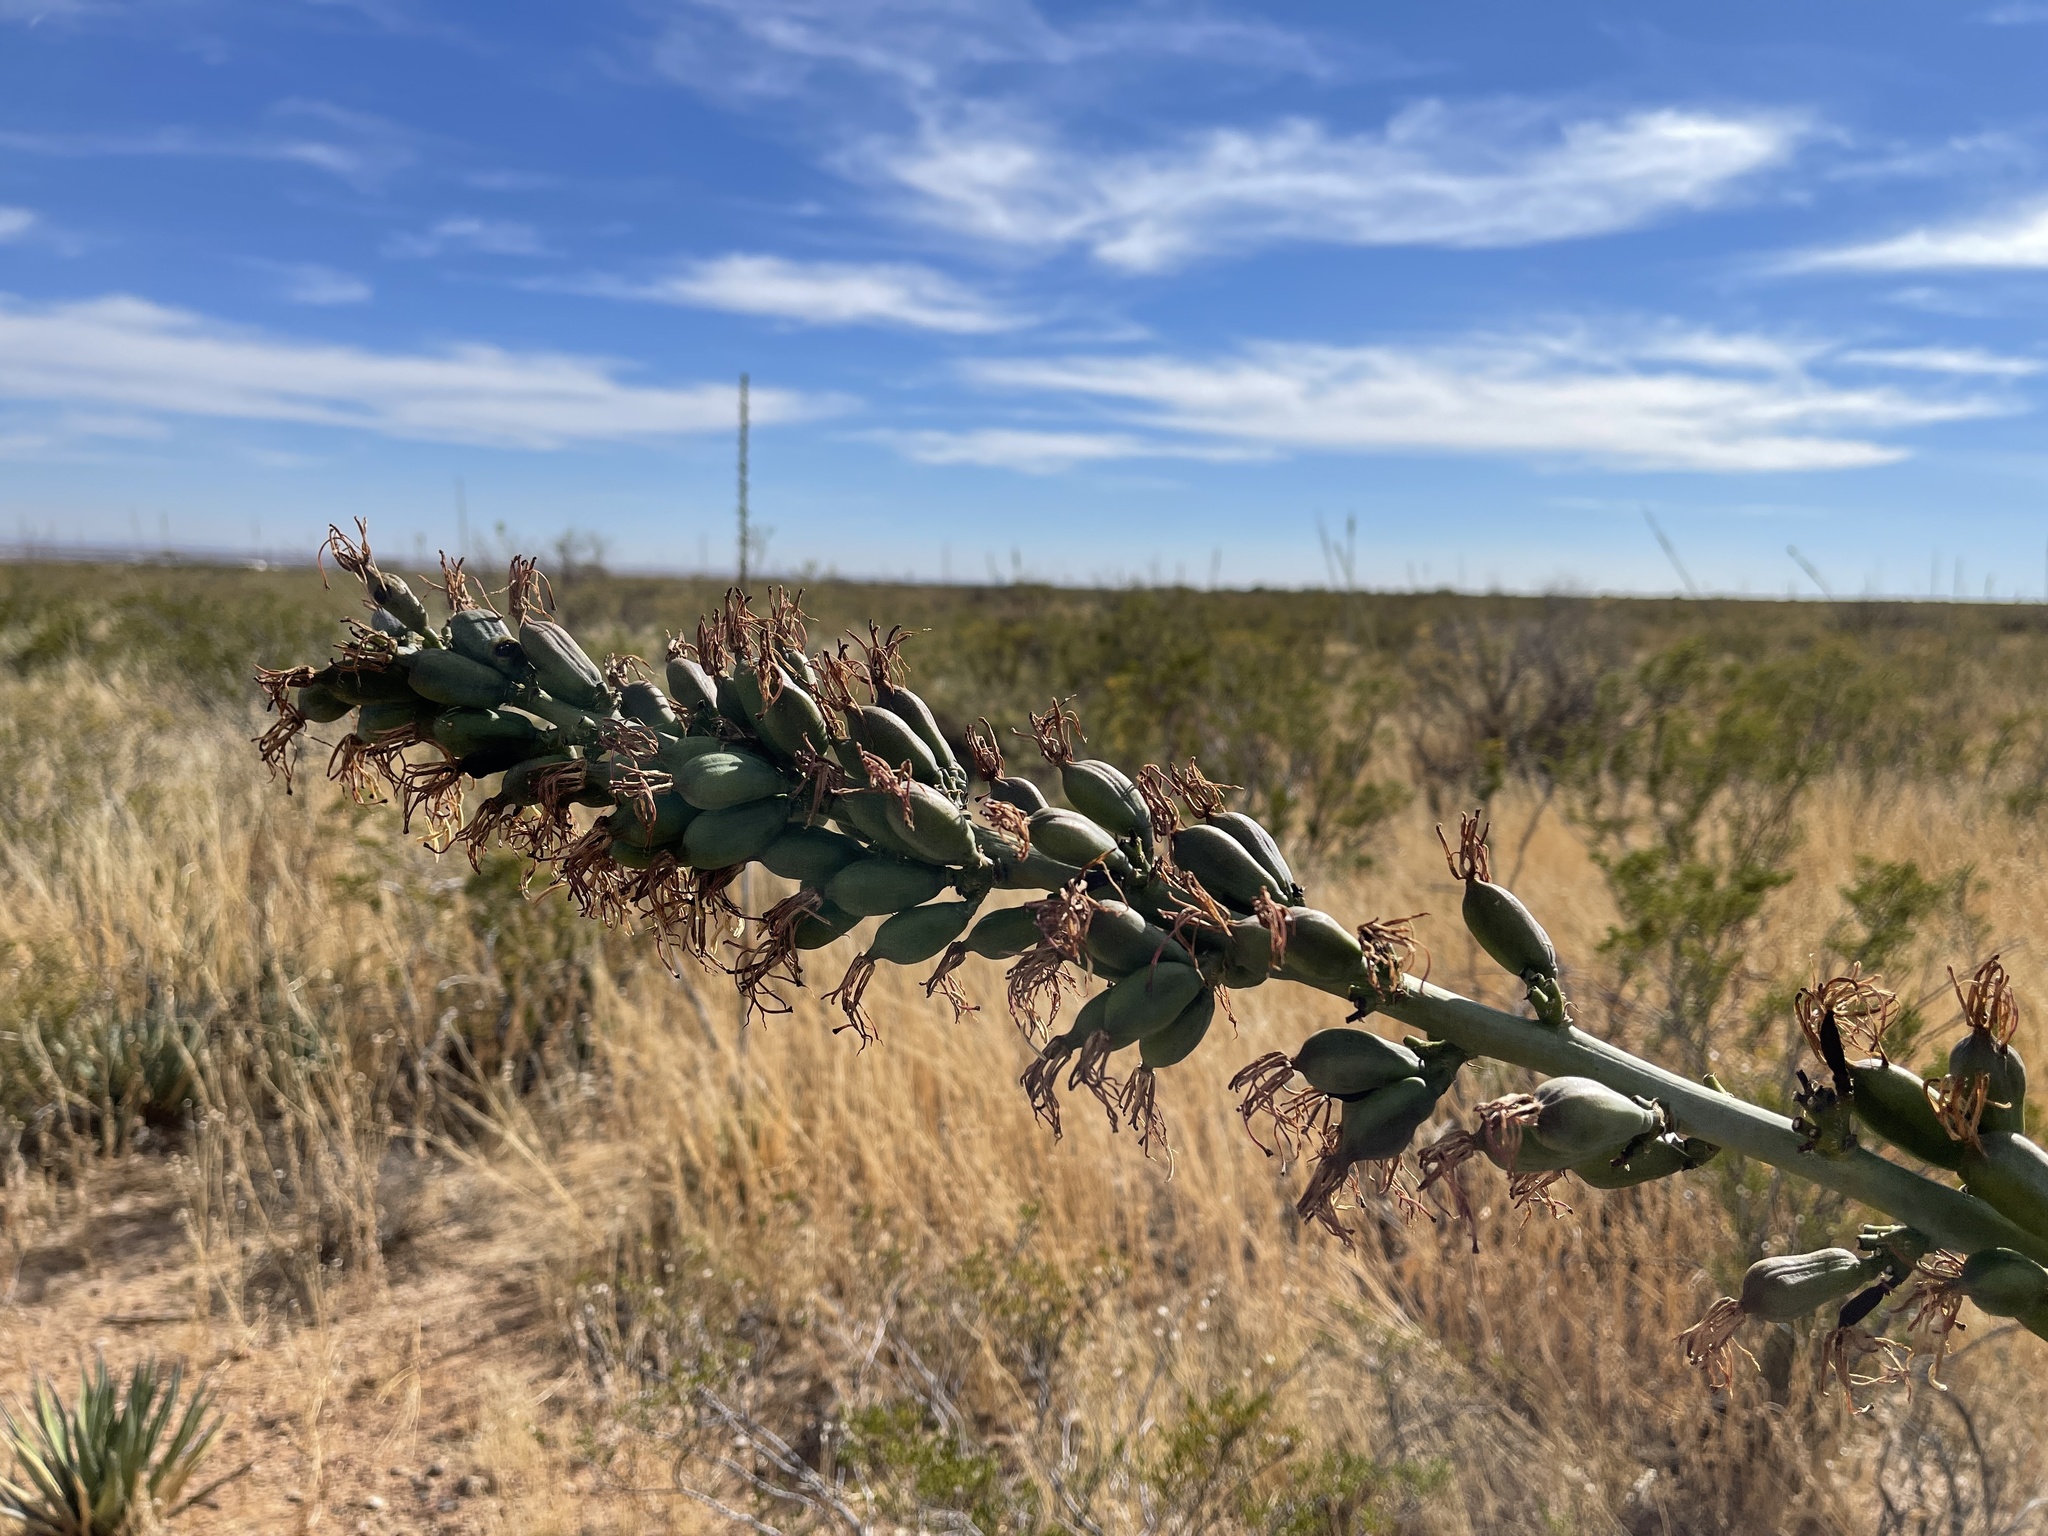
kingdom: Plantae
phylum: Tracheophyta
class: Liliopsida
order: Asparagales
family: Asparagaceae
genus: Agave
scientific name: Agave lechuguilla
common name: Lecheguilla agave
